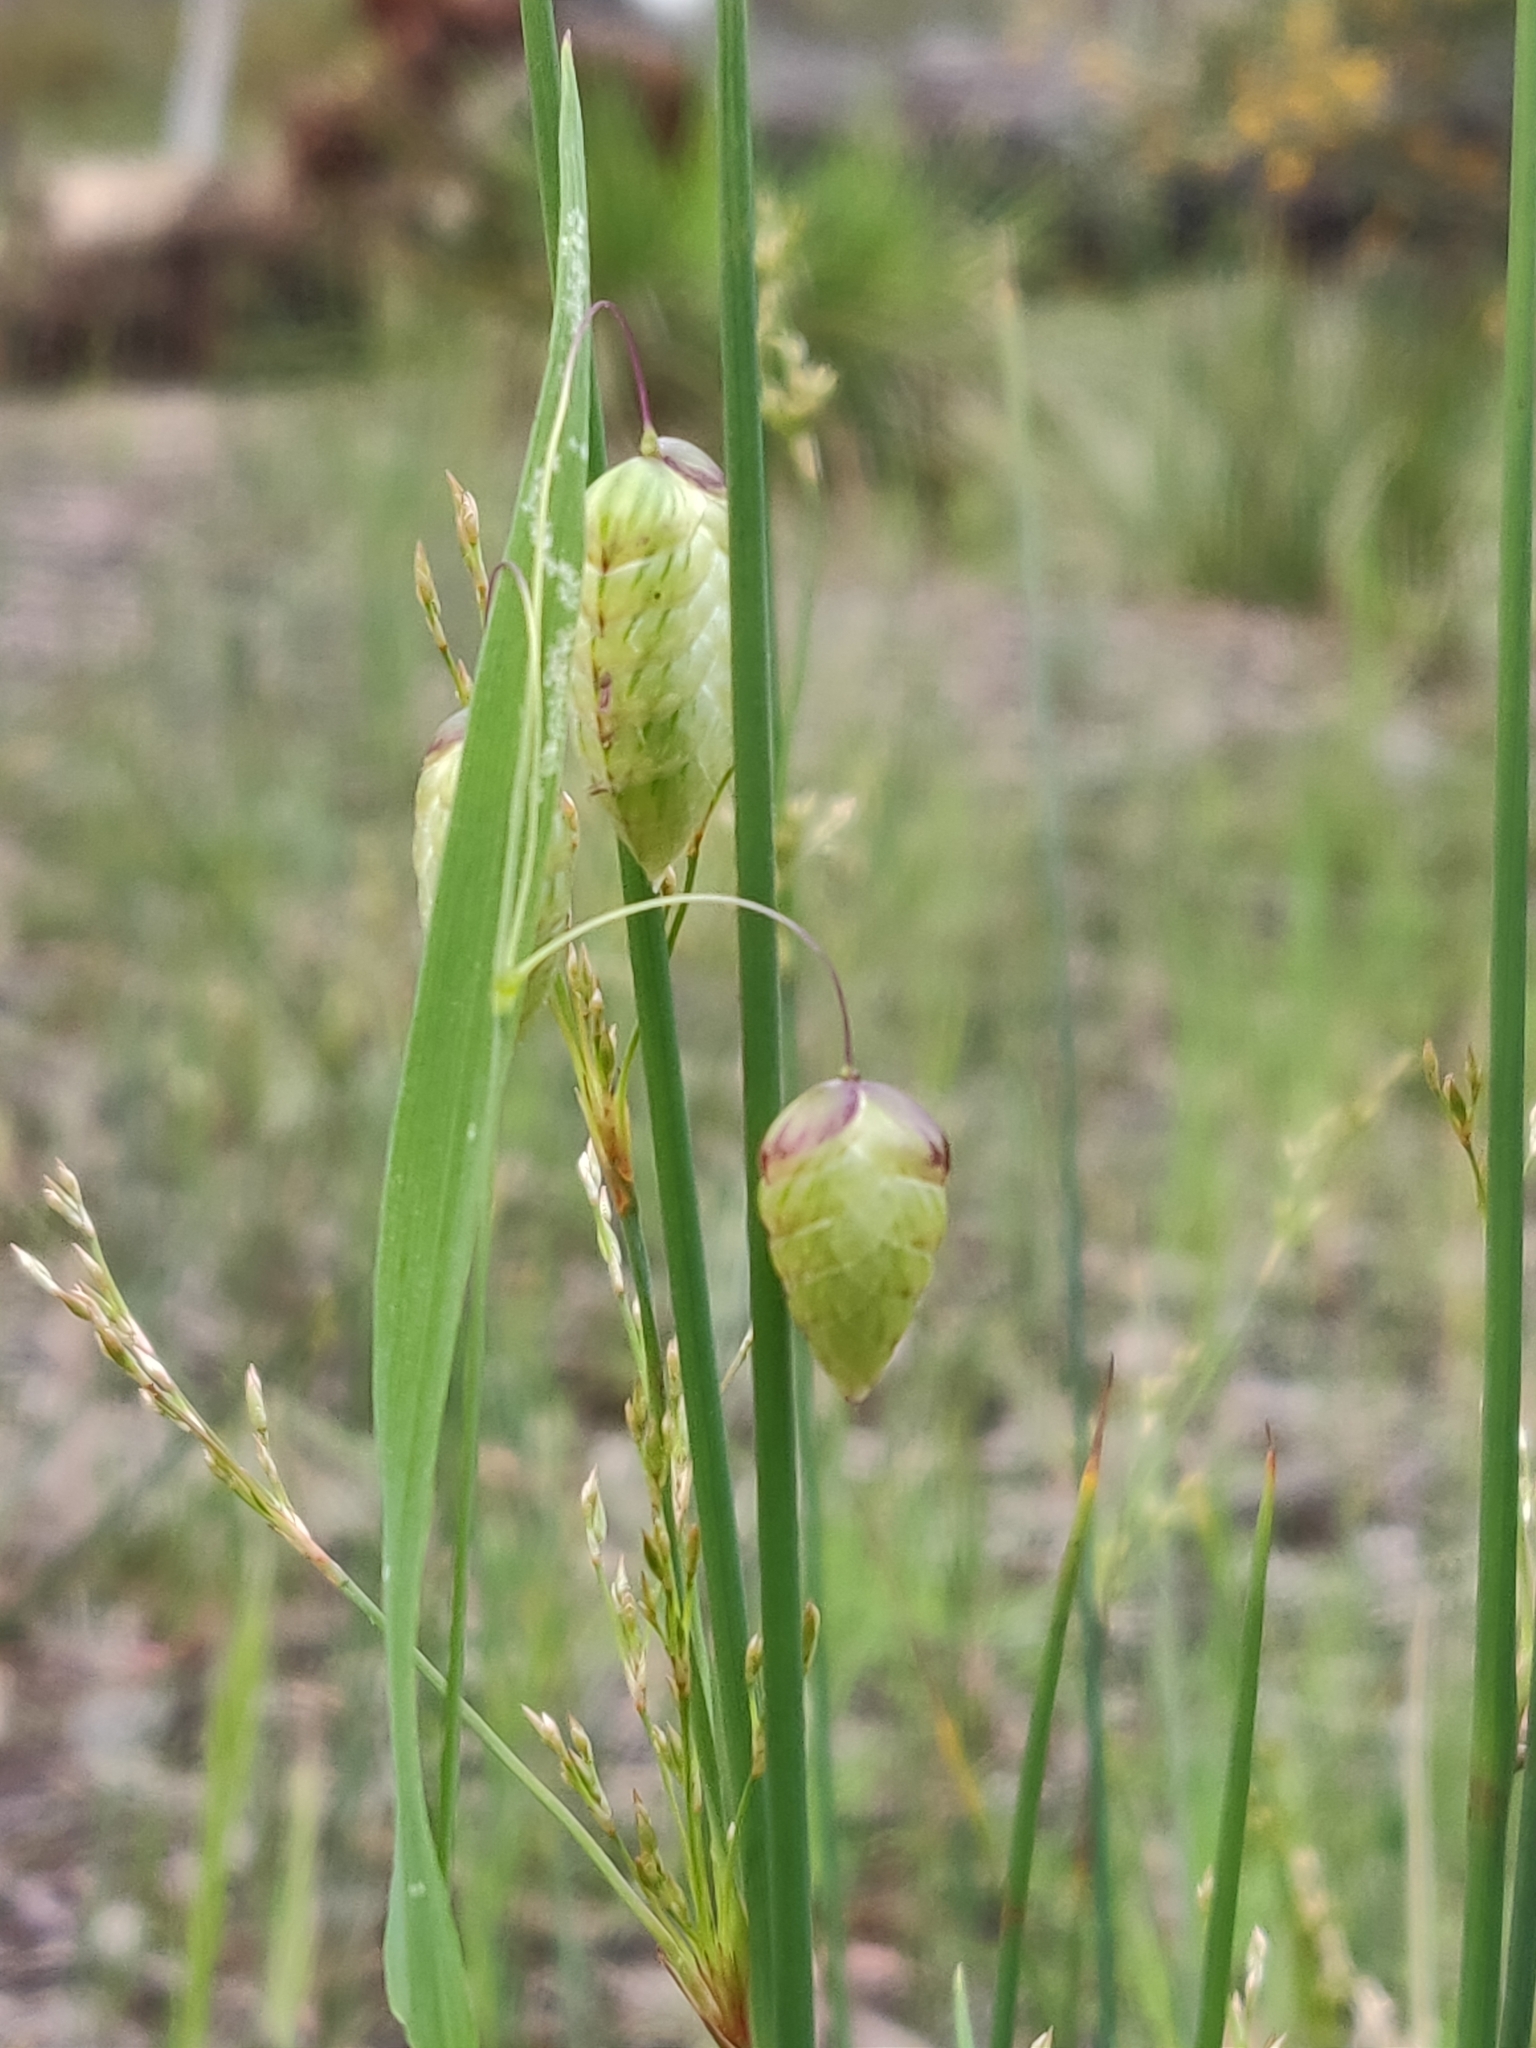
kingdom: Plantae
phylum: Tracheophyta
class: Liliopsida
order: Poales
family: Poaceae
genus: Briza
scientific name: Briza maxima
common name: Big quakinggrass
